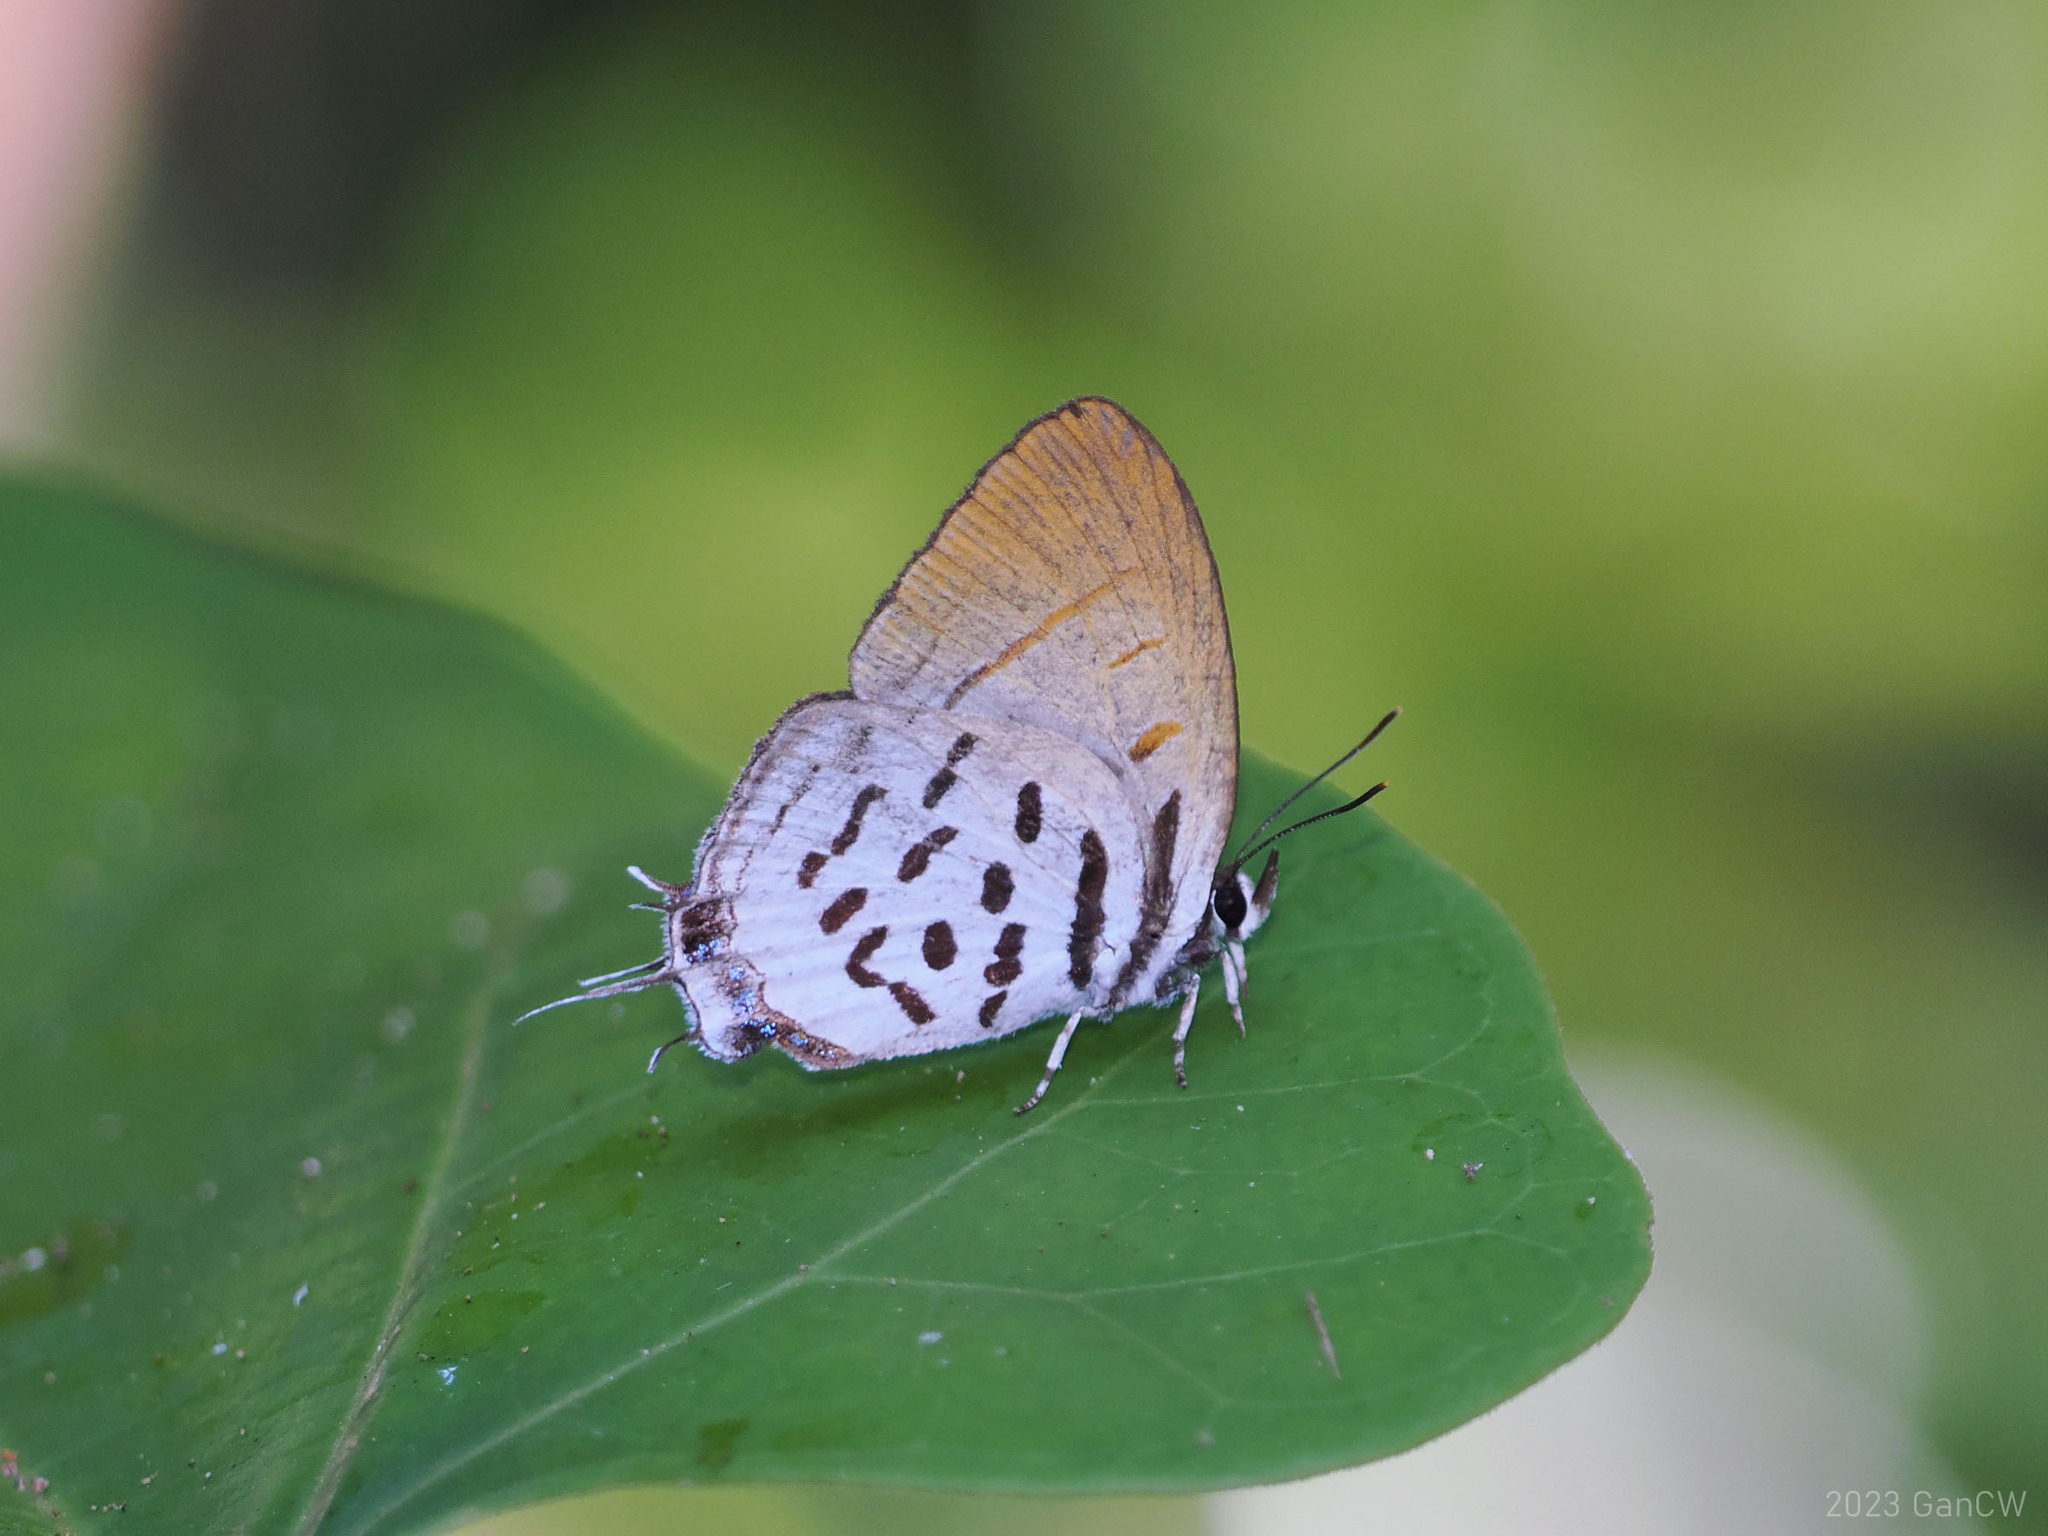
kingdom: Animalia
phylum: Arthropoda
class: Insecta
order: Lepidoptera
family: Lycaenidae
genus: Drupadia
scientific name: Drupadia ravindra
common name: Common posy
